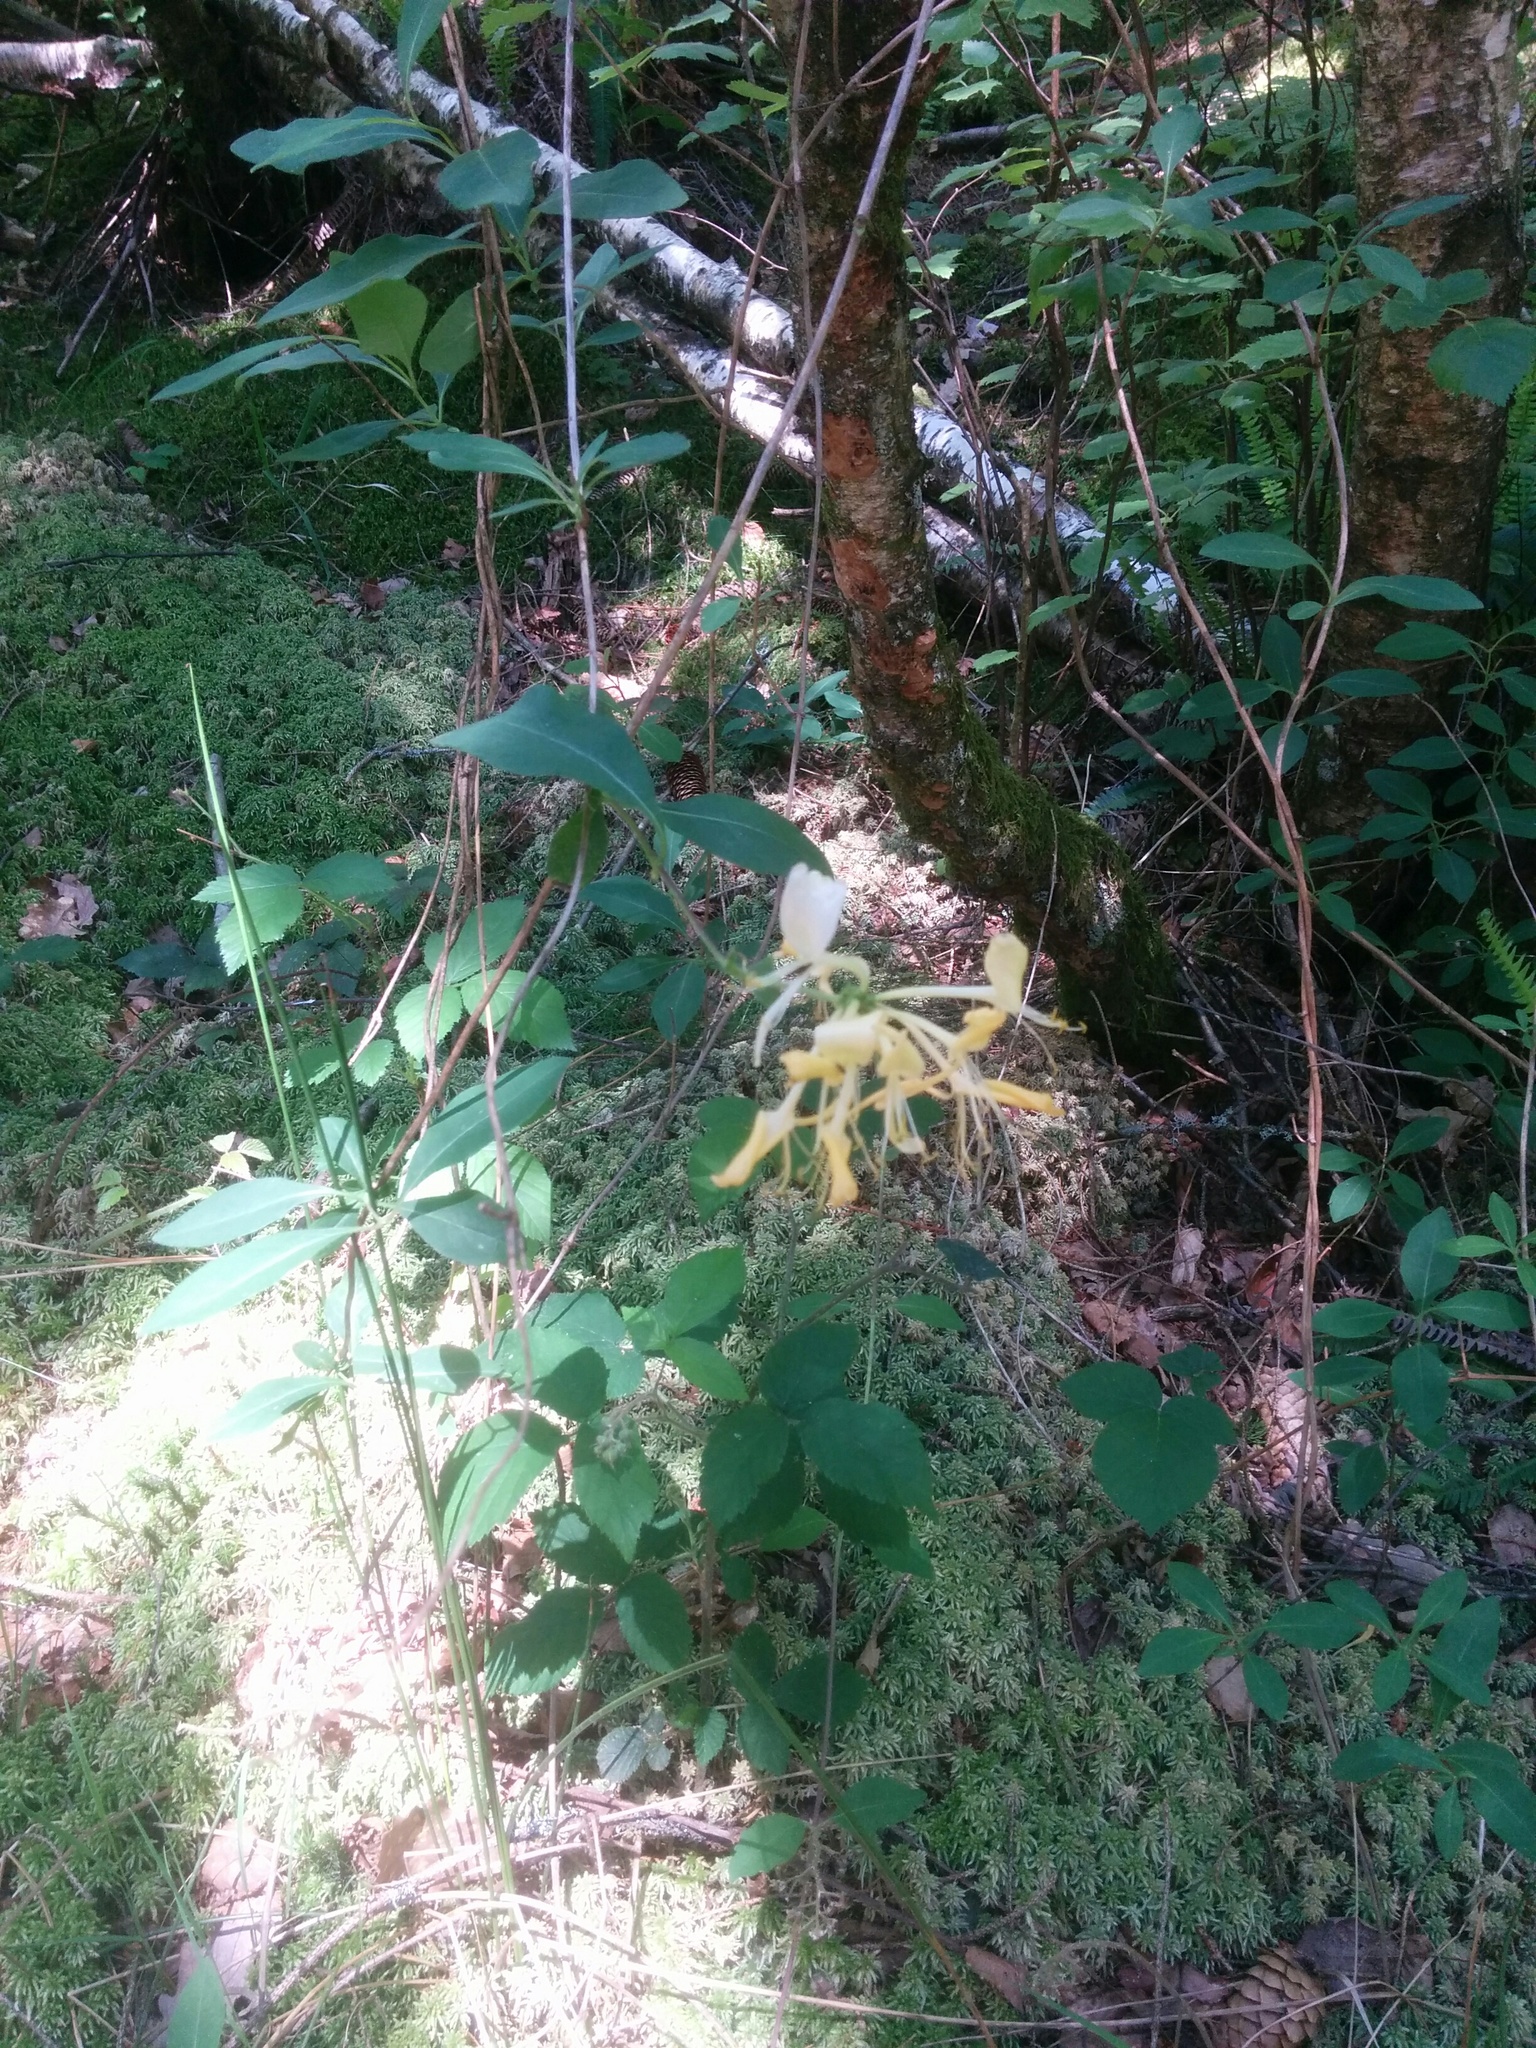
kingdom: Plantae
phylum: Tracheophyta
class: Magnoliopsida
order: Dipsacales
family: Caprifoliaceae
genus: Lonicera
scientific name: Lonicera periclymenum
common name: European honeysuckle
